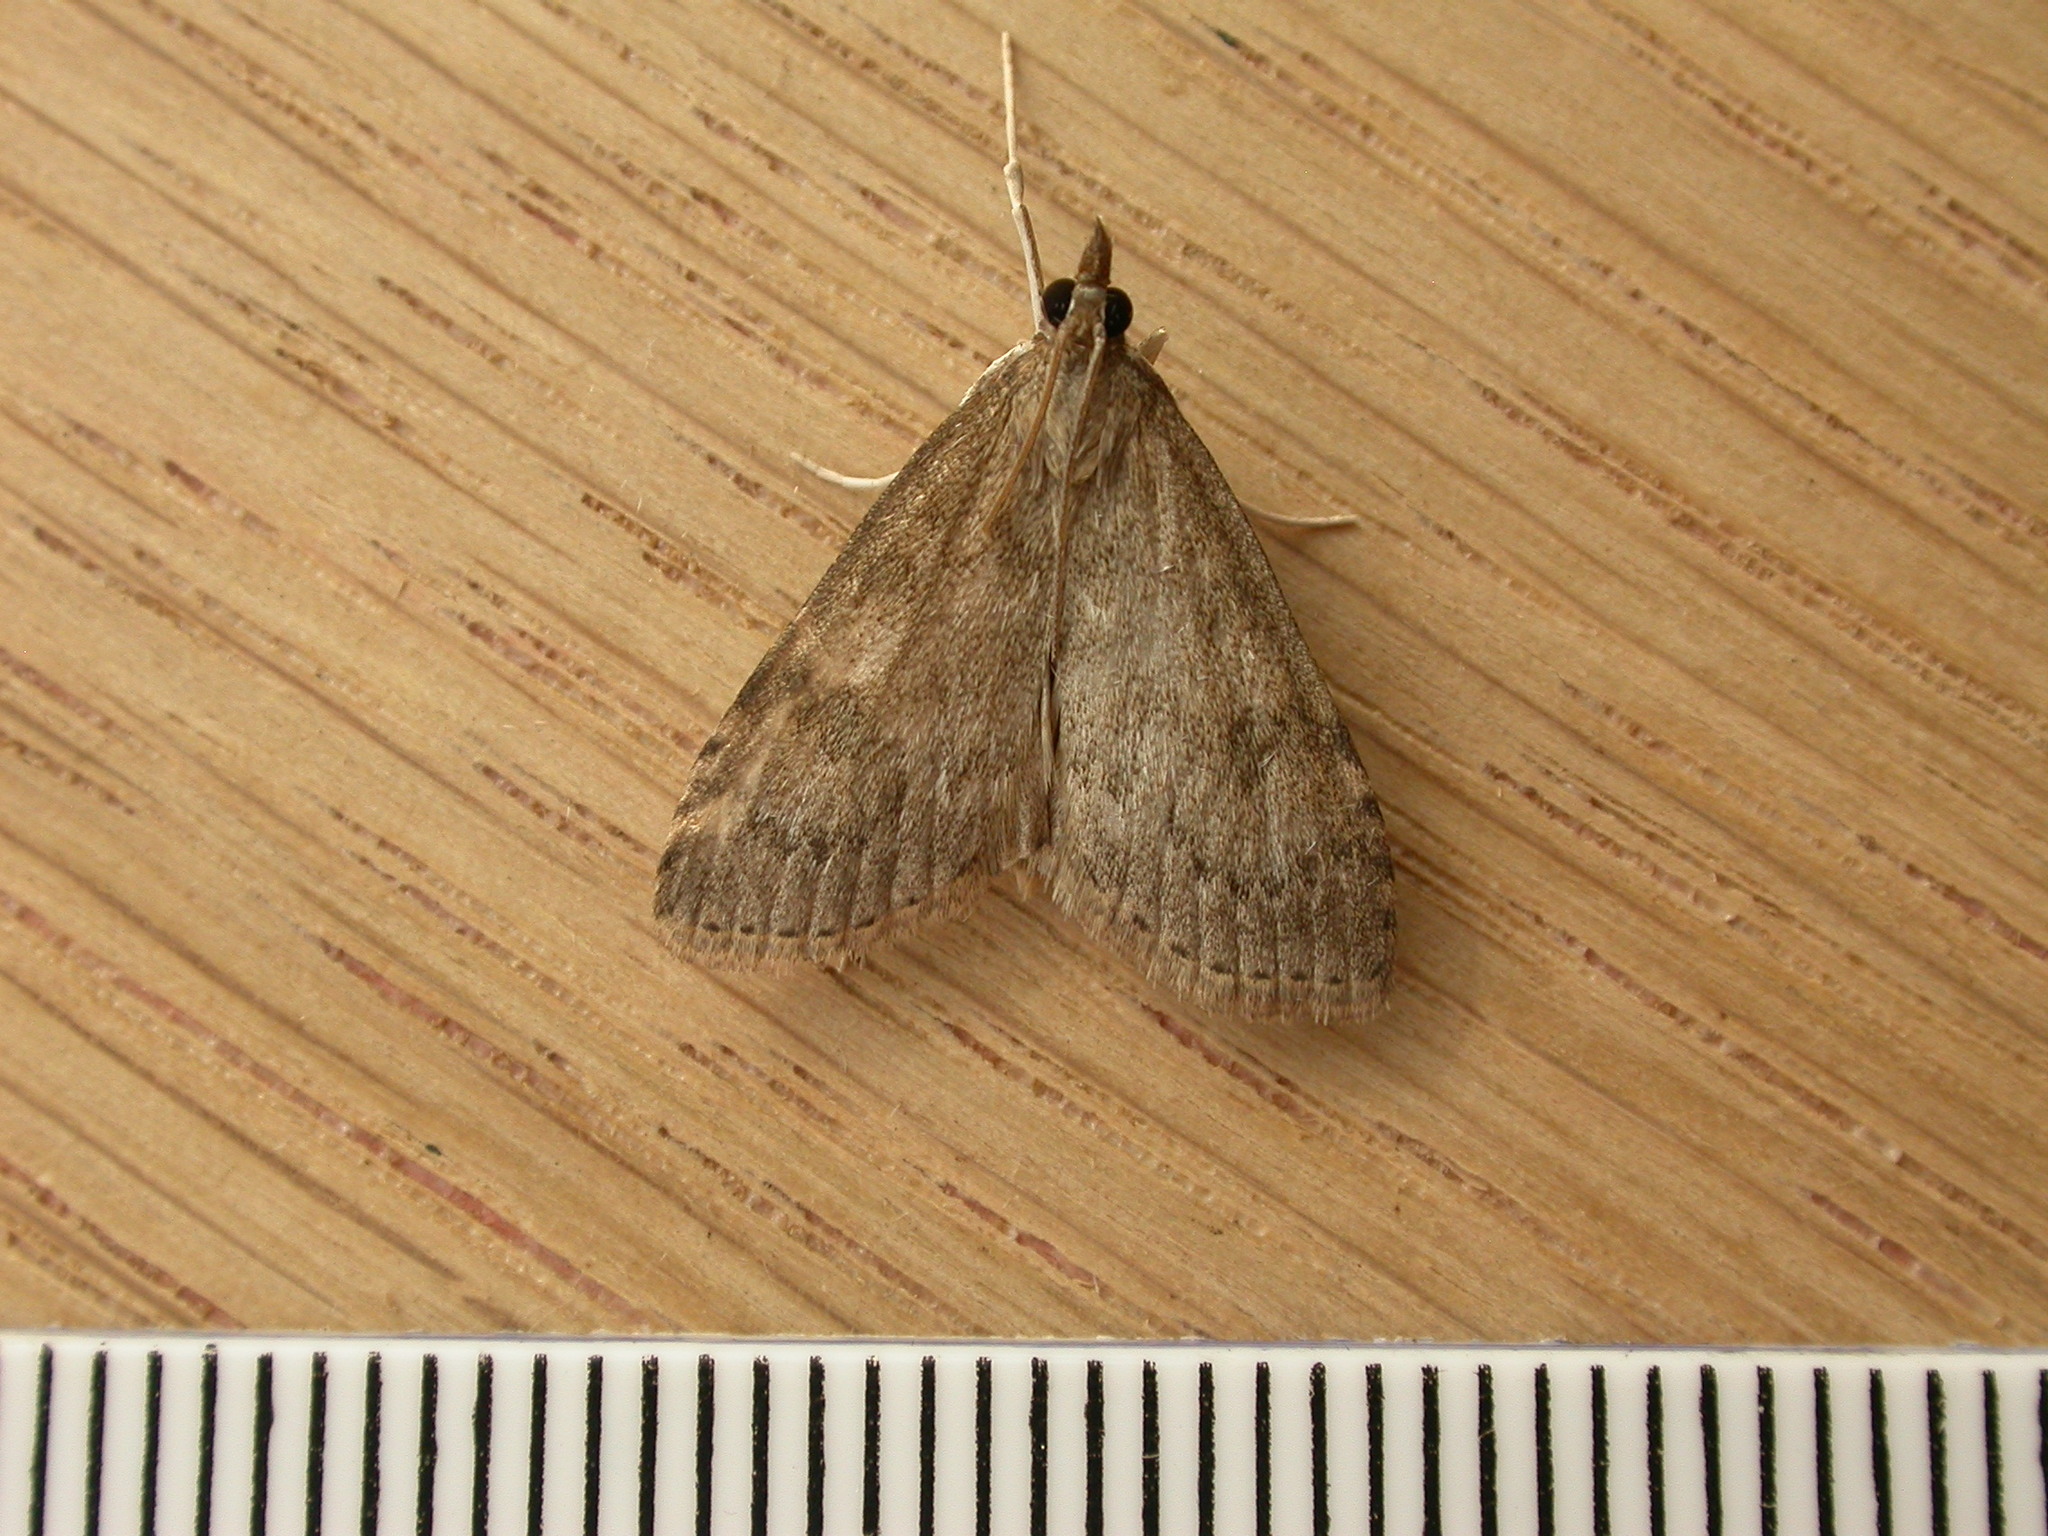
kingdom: Animalia
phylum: Arthropoda
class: Insecta
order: Lepidoptera
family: Crambidae
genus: Udea
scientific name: Udea prunalis
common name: Dusky pearl
